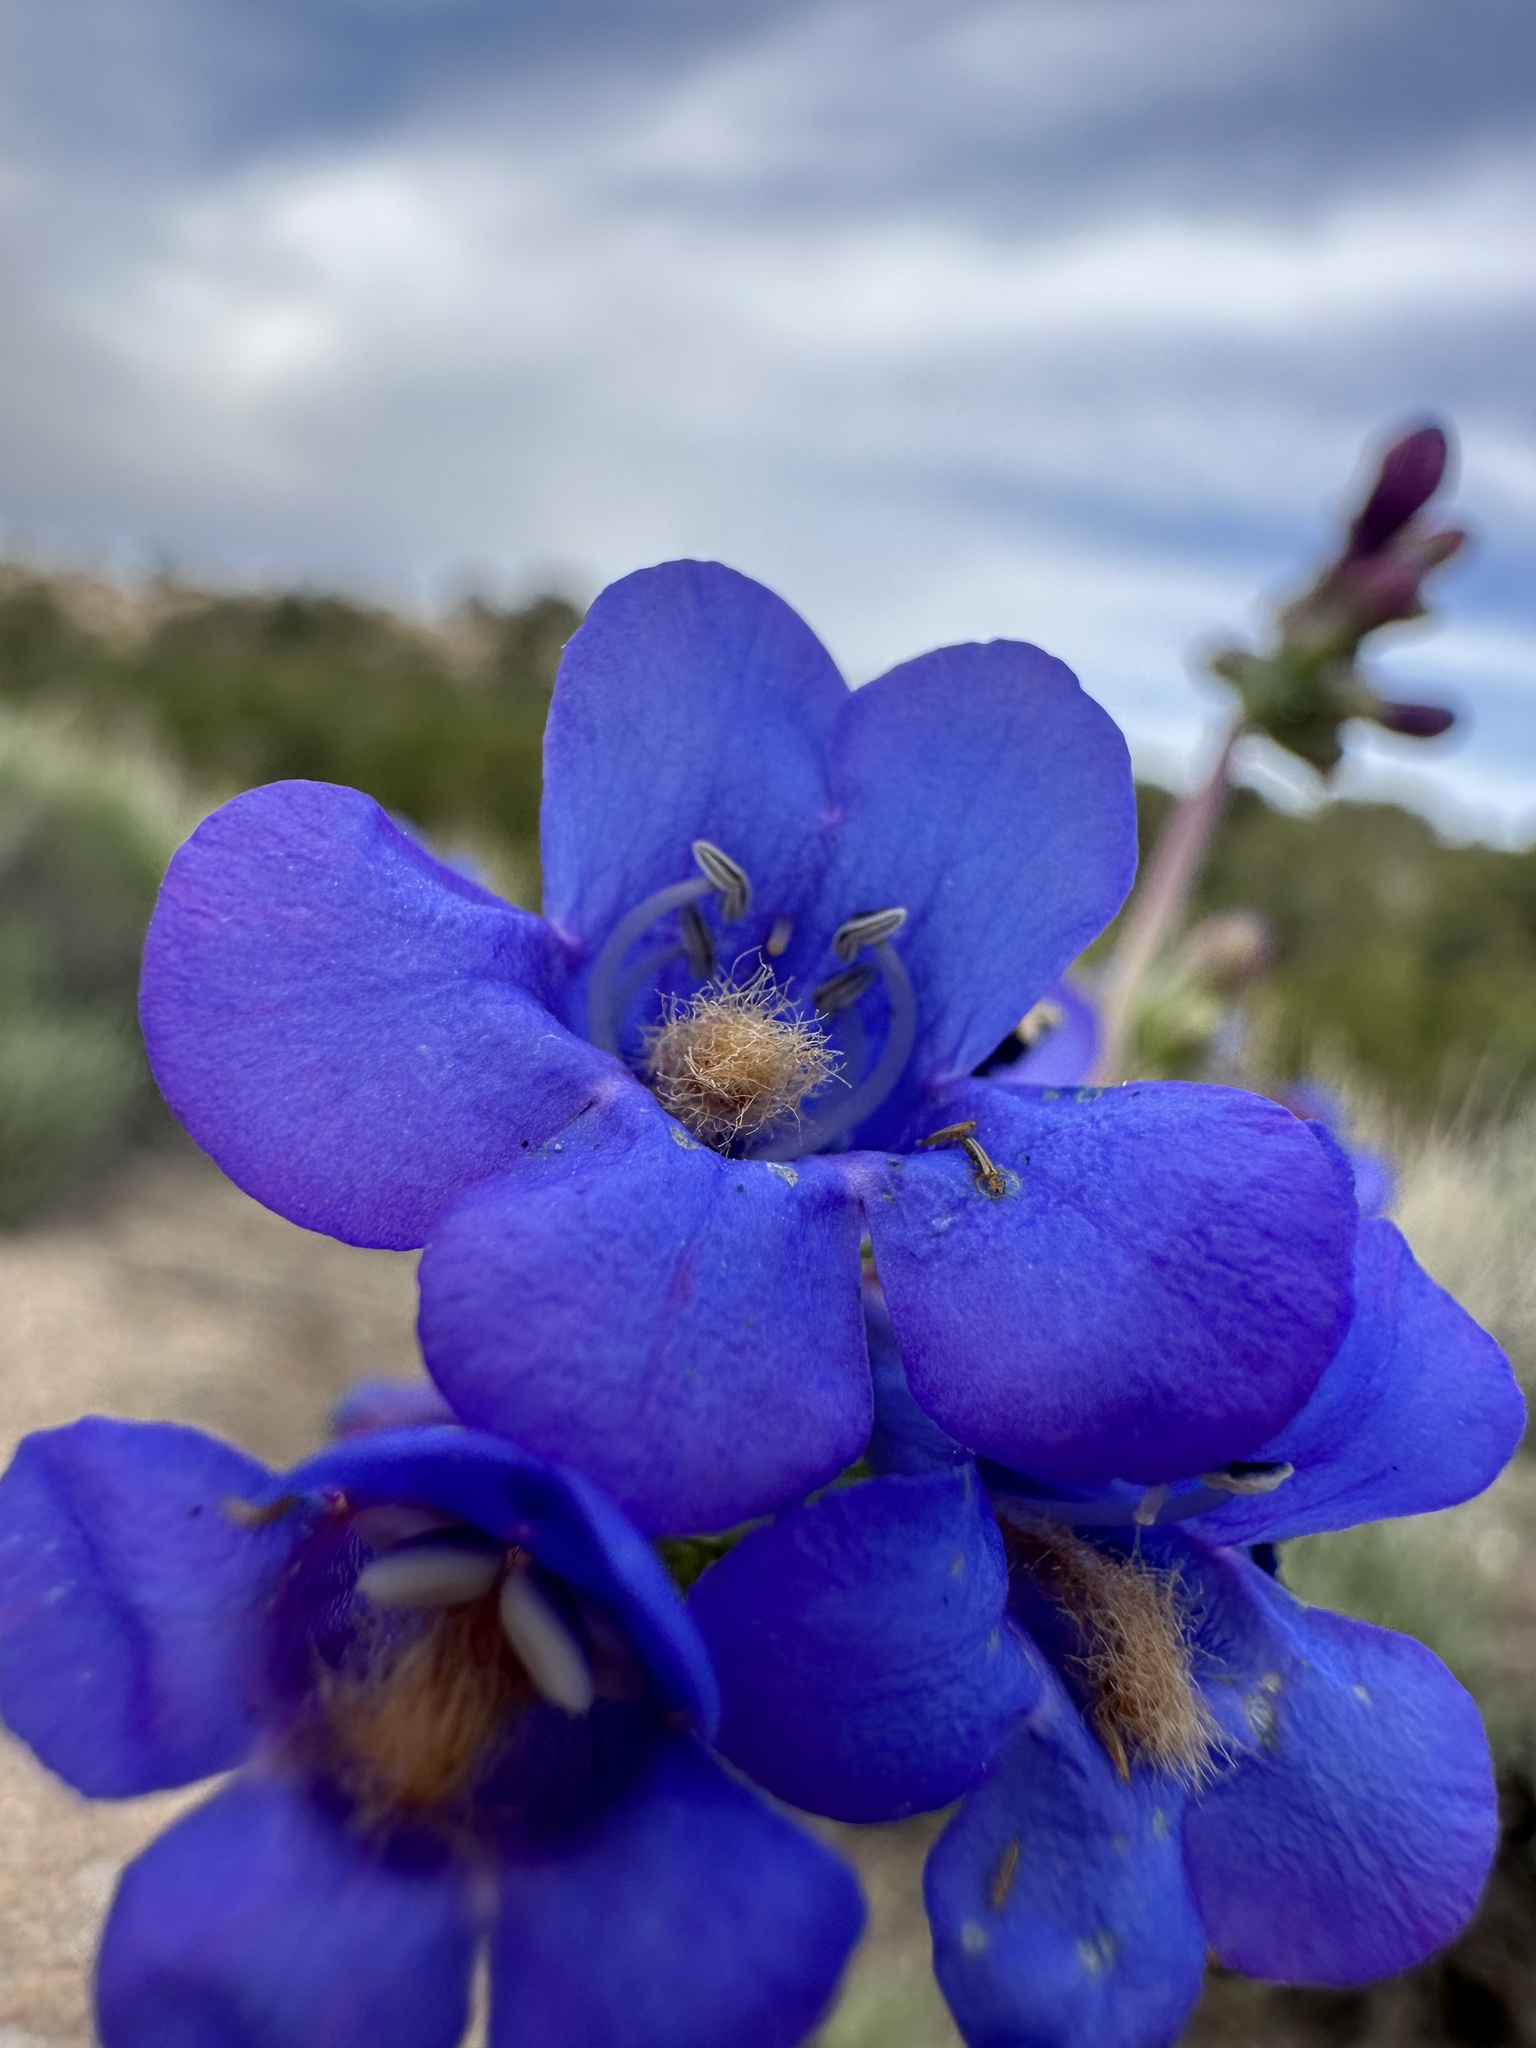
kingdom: Plantae
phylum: Tracheophyta
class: Magnoliopsida
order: Lamiales
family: Plantaginaceae
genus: Penstemon
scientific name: Penstemon pachyphyllus
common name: Thick-leaf penstemon
